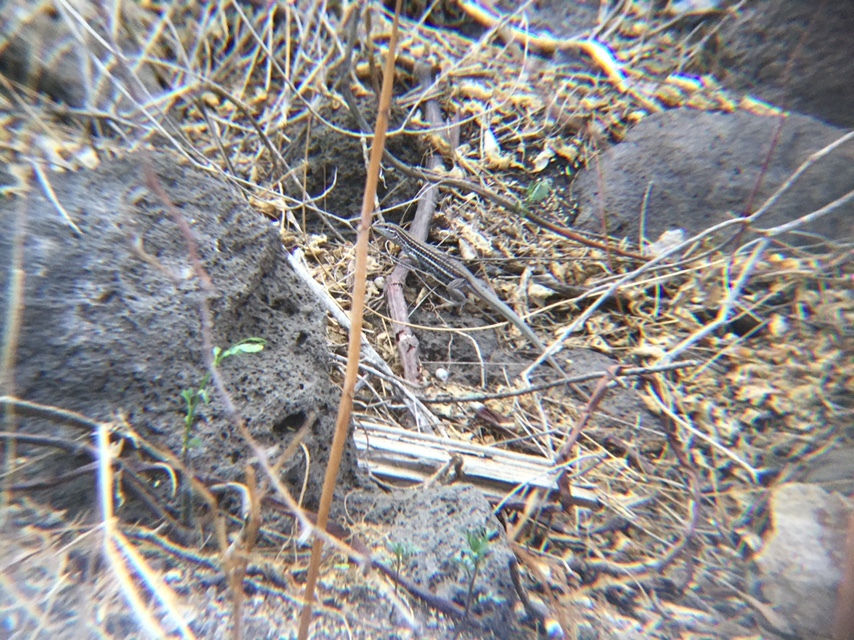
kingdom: Animalia
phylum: Chordata
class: Squamata
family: Teiidae
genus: Aspidoscelis
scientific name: Aspidoscelis gularis
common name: Eastern spotted whiptail
